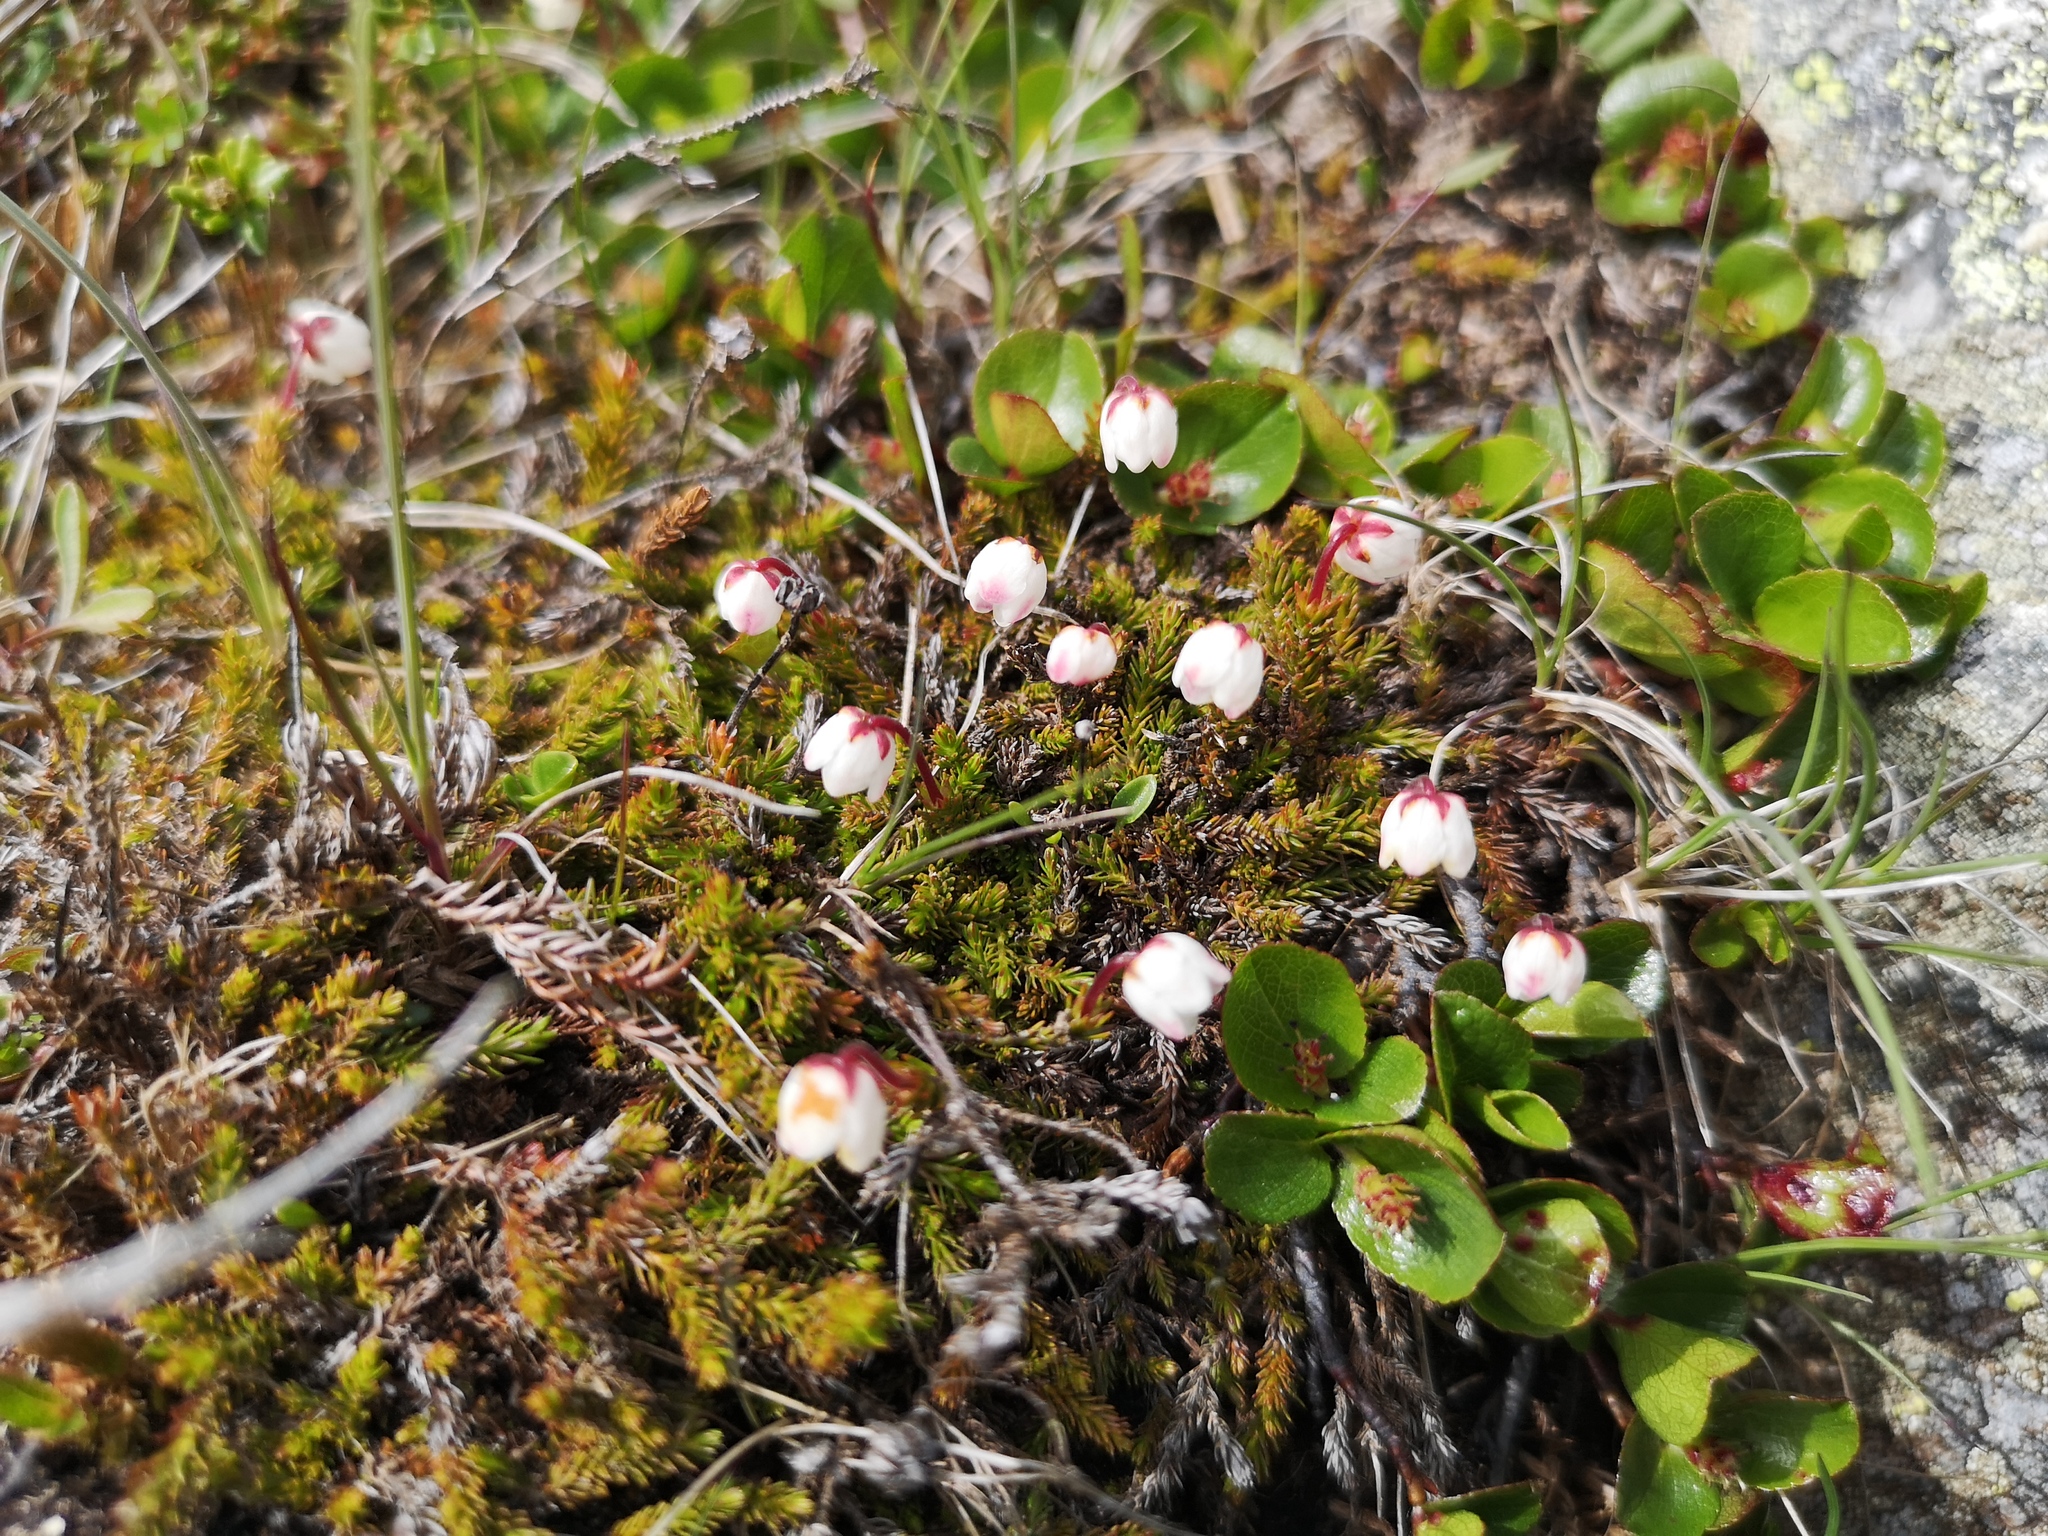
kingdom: Plantae
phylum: Tracheophyta
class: Magnoliopsida
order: Ericales
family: Ericaceae
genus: Harrimanella
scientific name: Harrimanella hypnoides
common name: Moss bell heather
